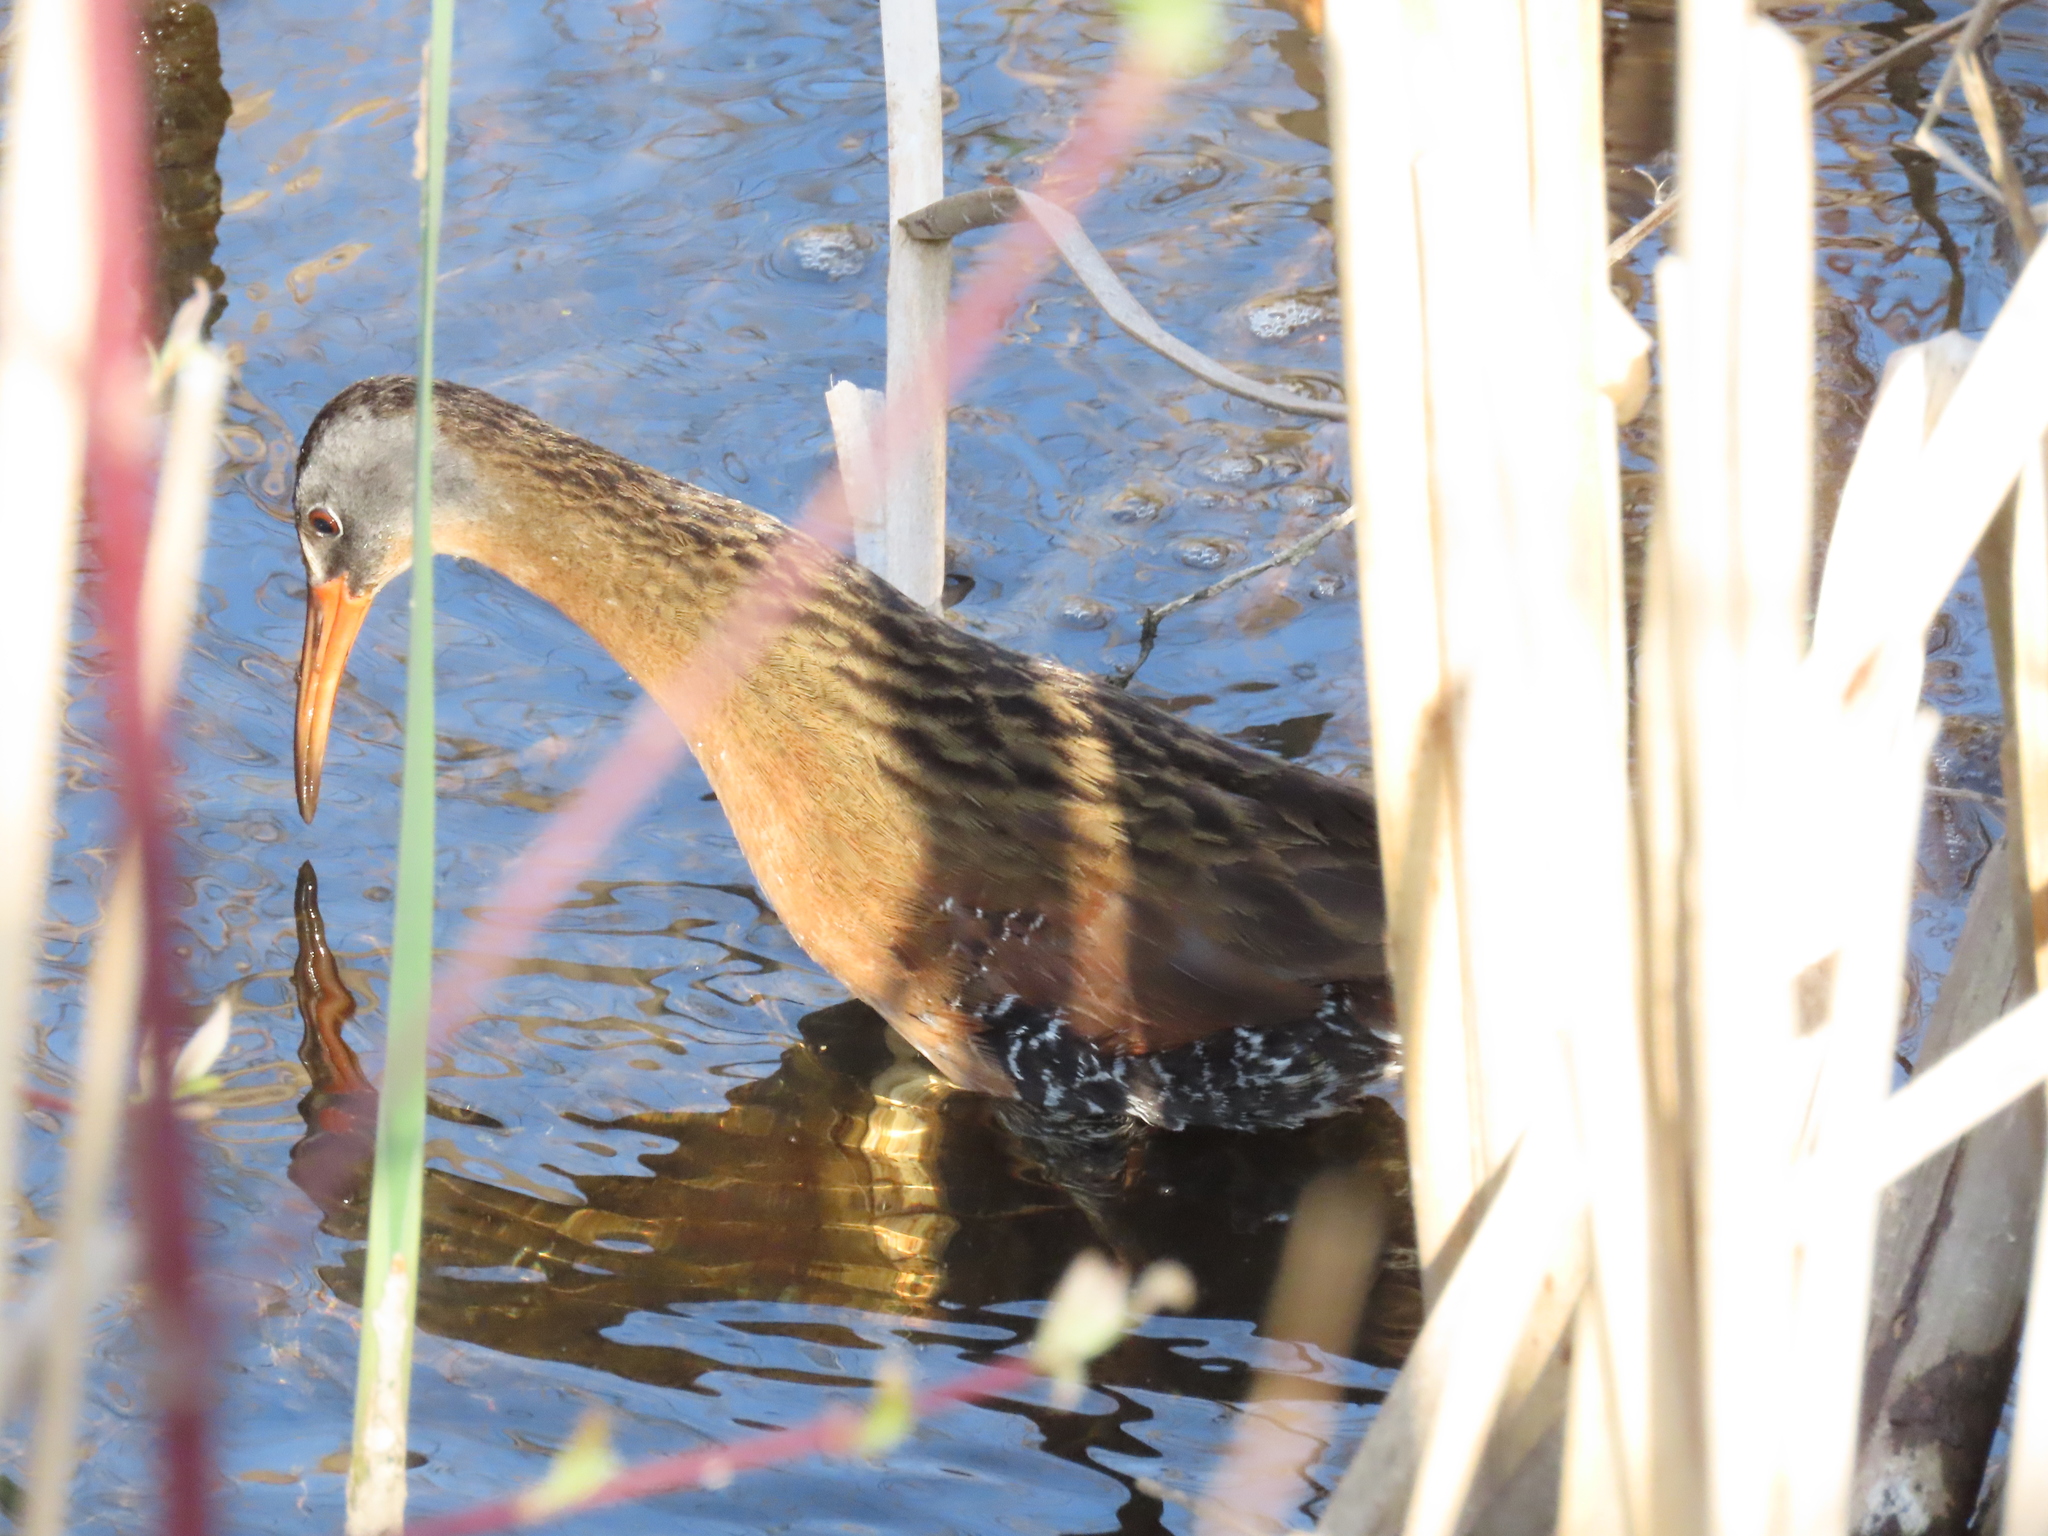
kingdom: Animalia
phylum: Chordata
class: Aves
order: Gruiformes
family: Rallidae
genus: Rallus
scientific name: Rallus limicola
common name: Virginia rail
